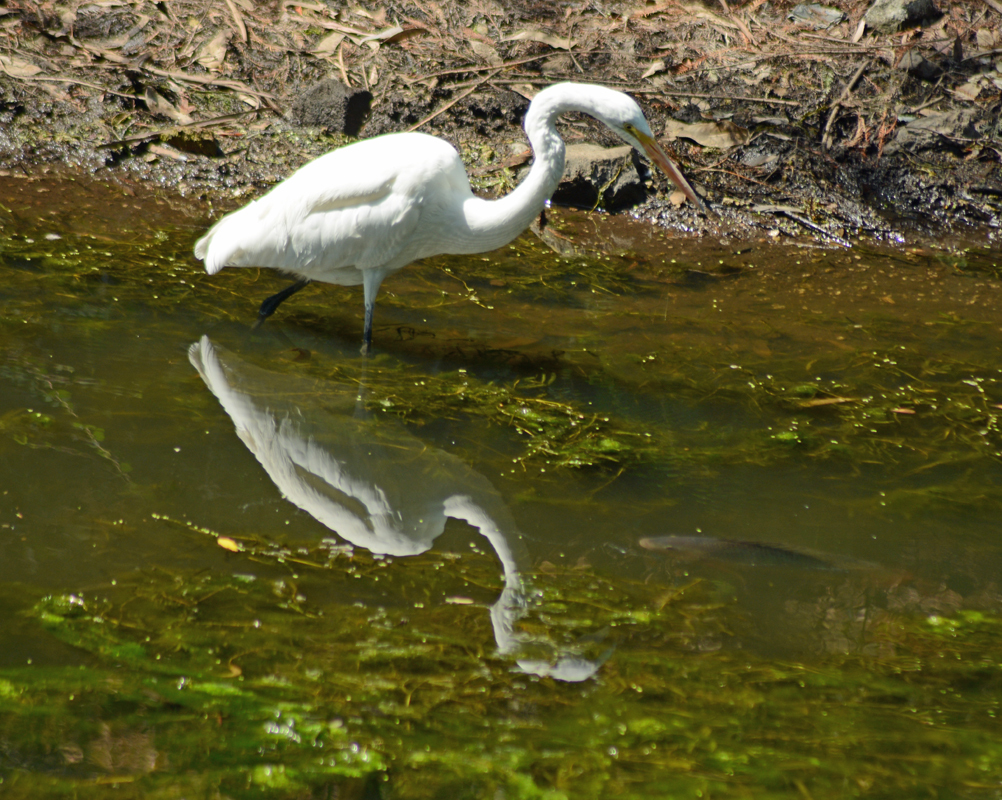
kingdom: Animalia
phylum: Chordata
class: Aves
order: Pelecaniformes
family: Ardeidae
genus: Ardea
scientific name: Ardea alba
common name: Great egret
